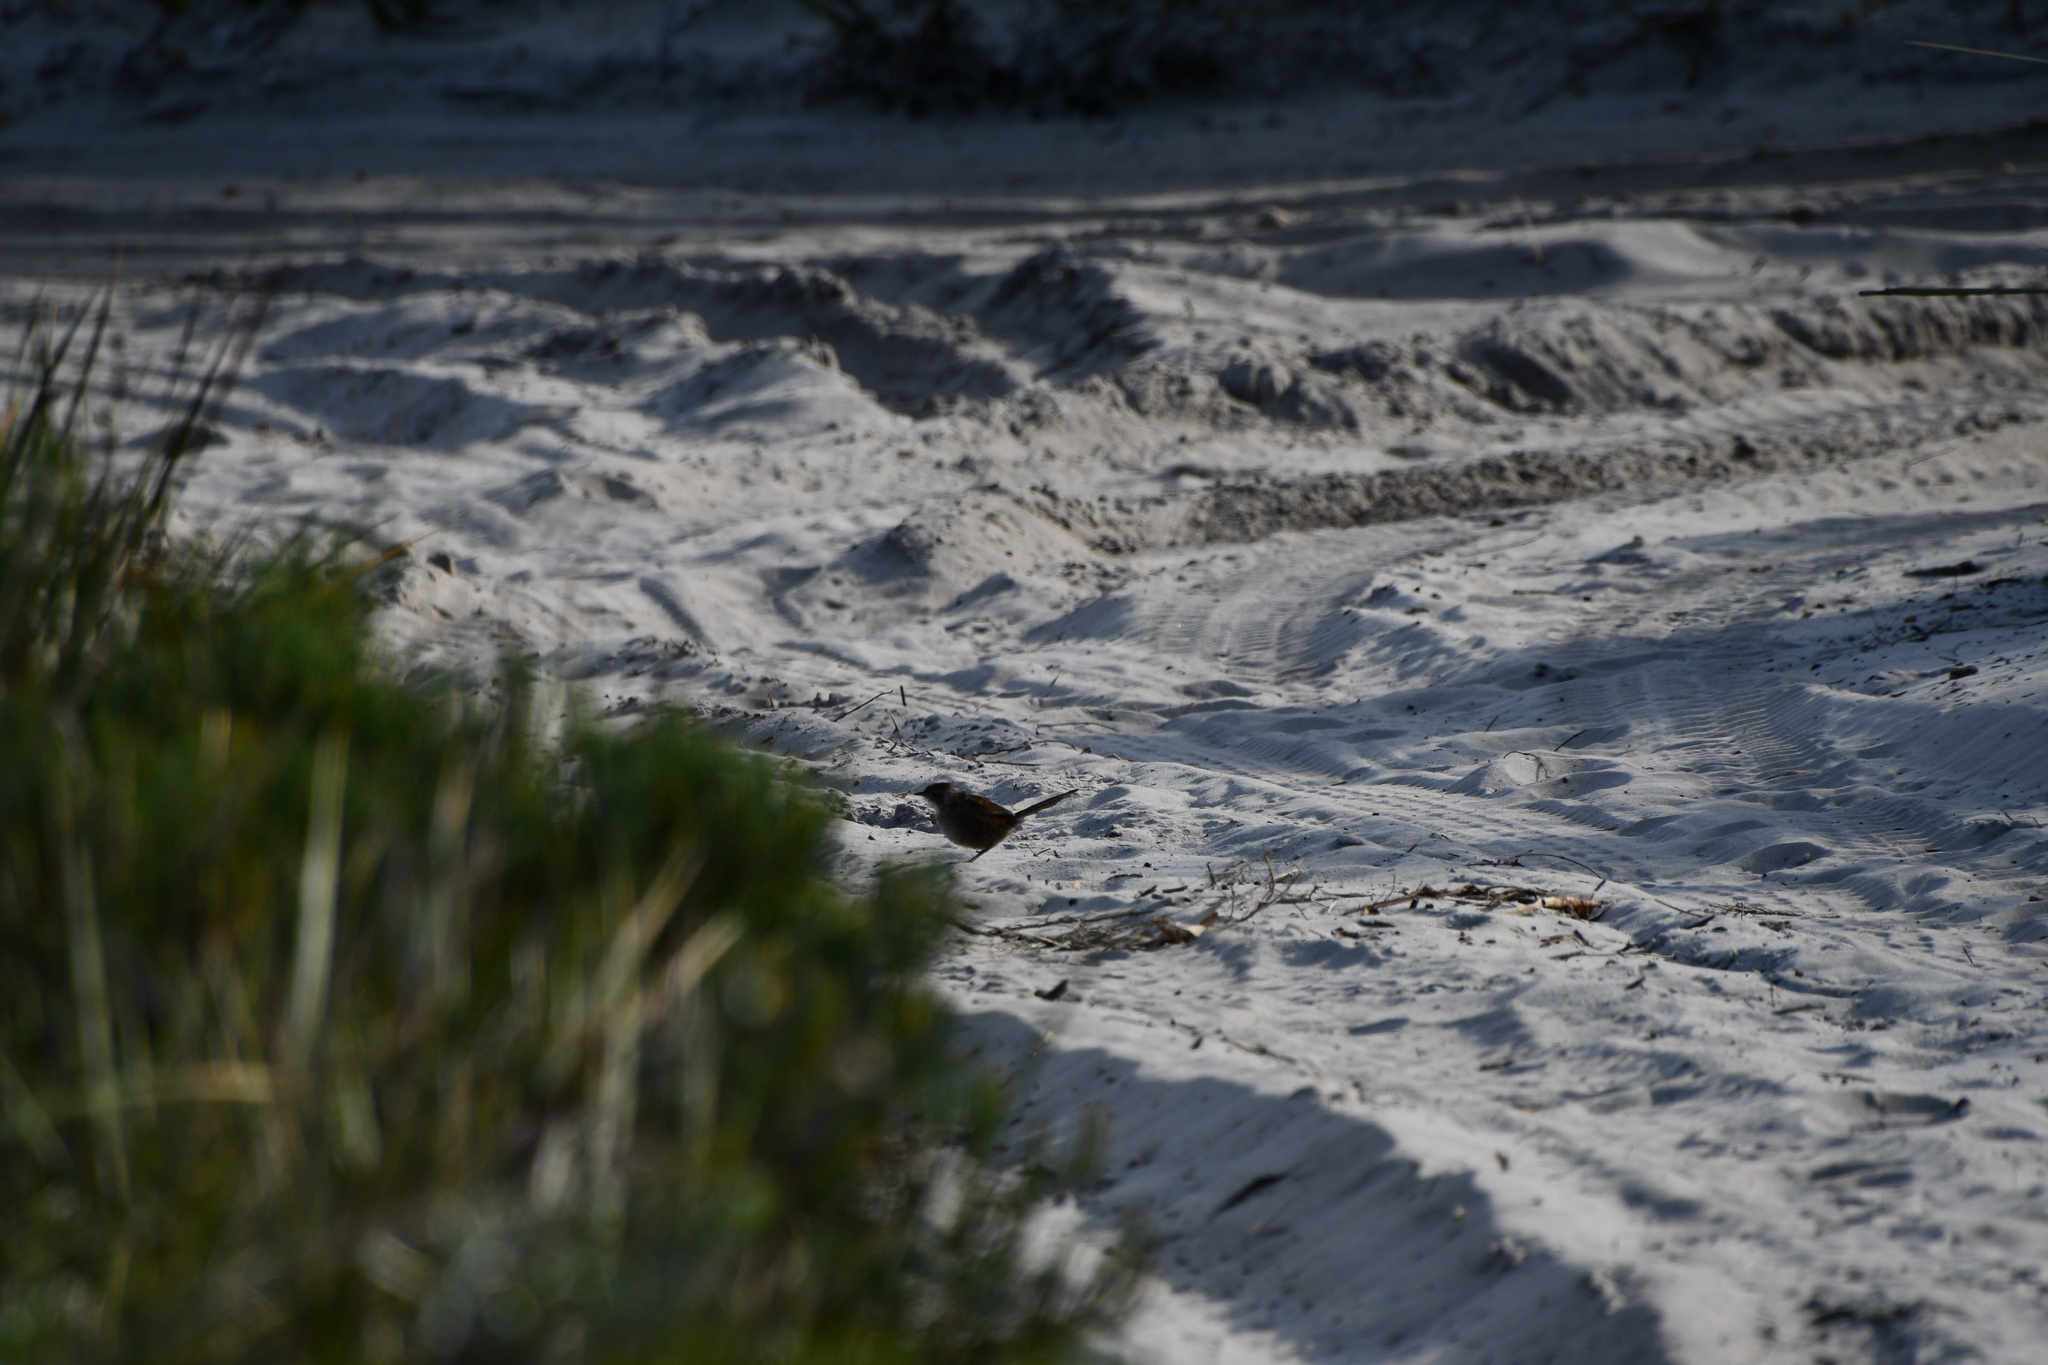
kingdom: Animalia
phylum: Chordata
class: Aves
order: Passeriformes
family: Dasyornithidae
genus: Dasyornis
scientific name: Dasyornis longirostris
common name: Western bristlebird
